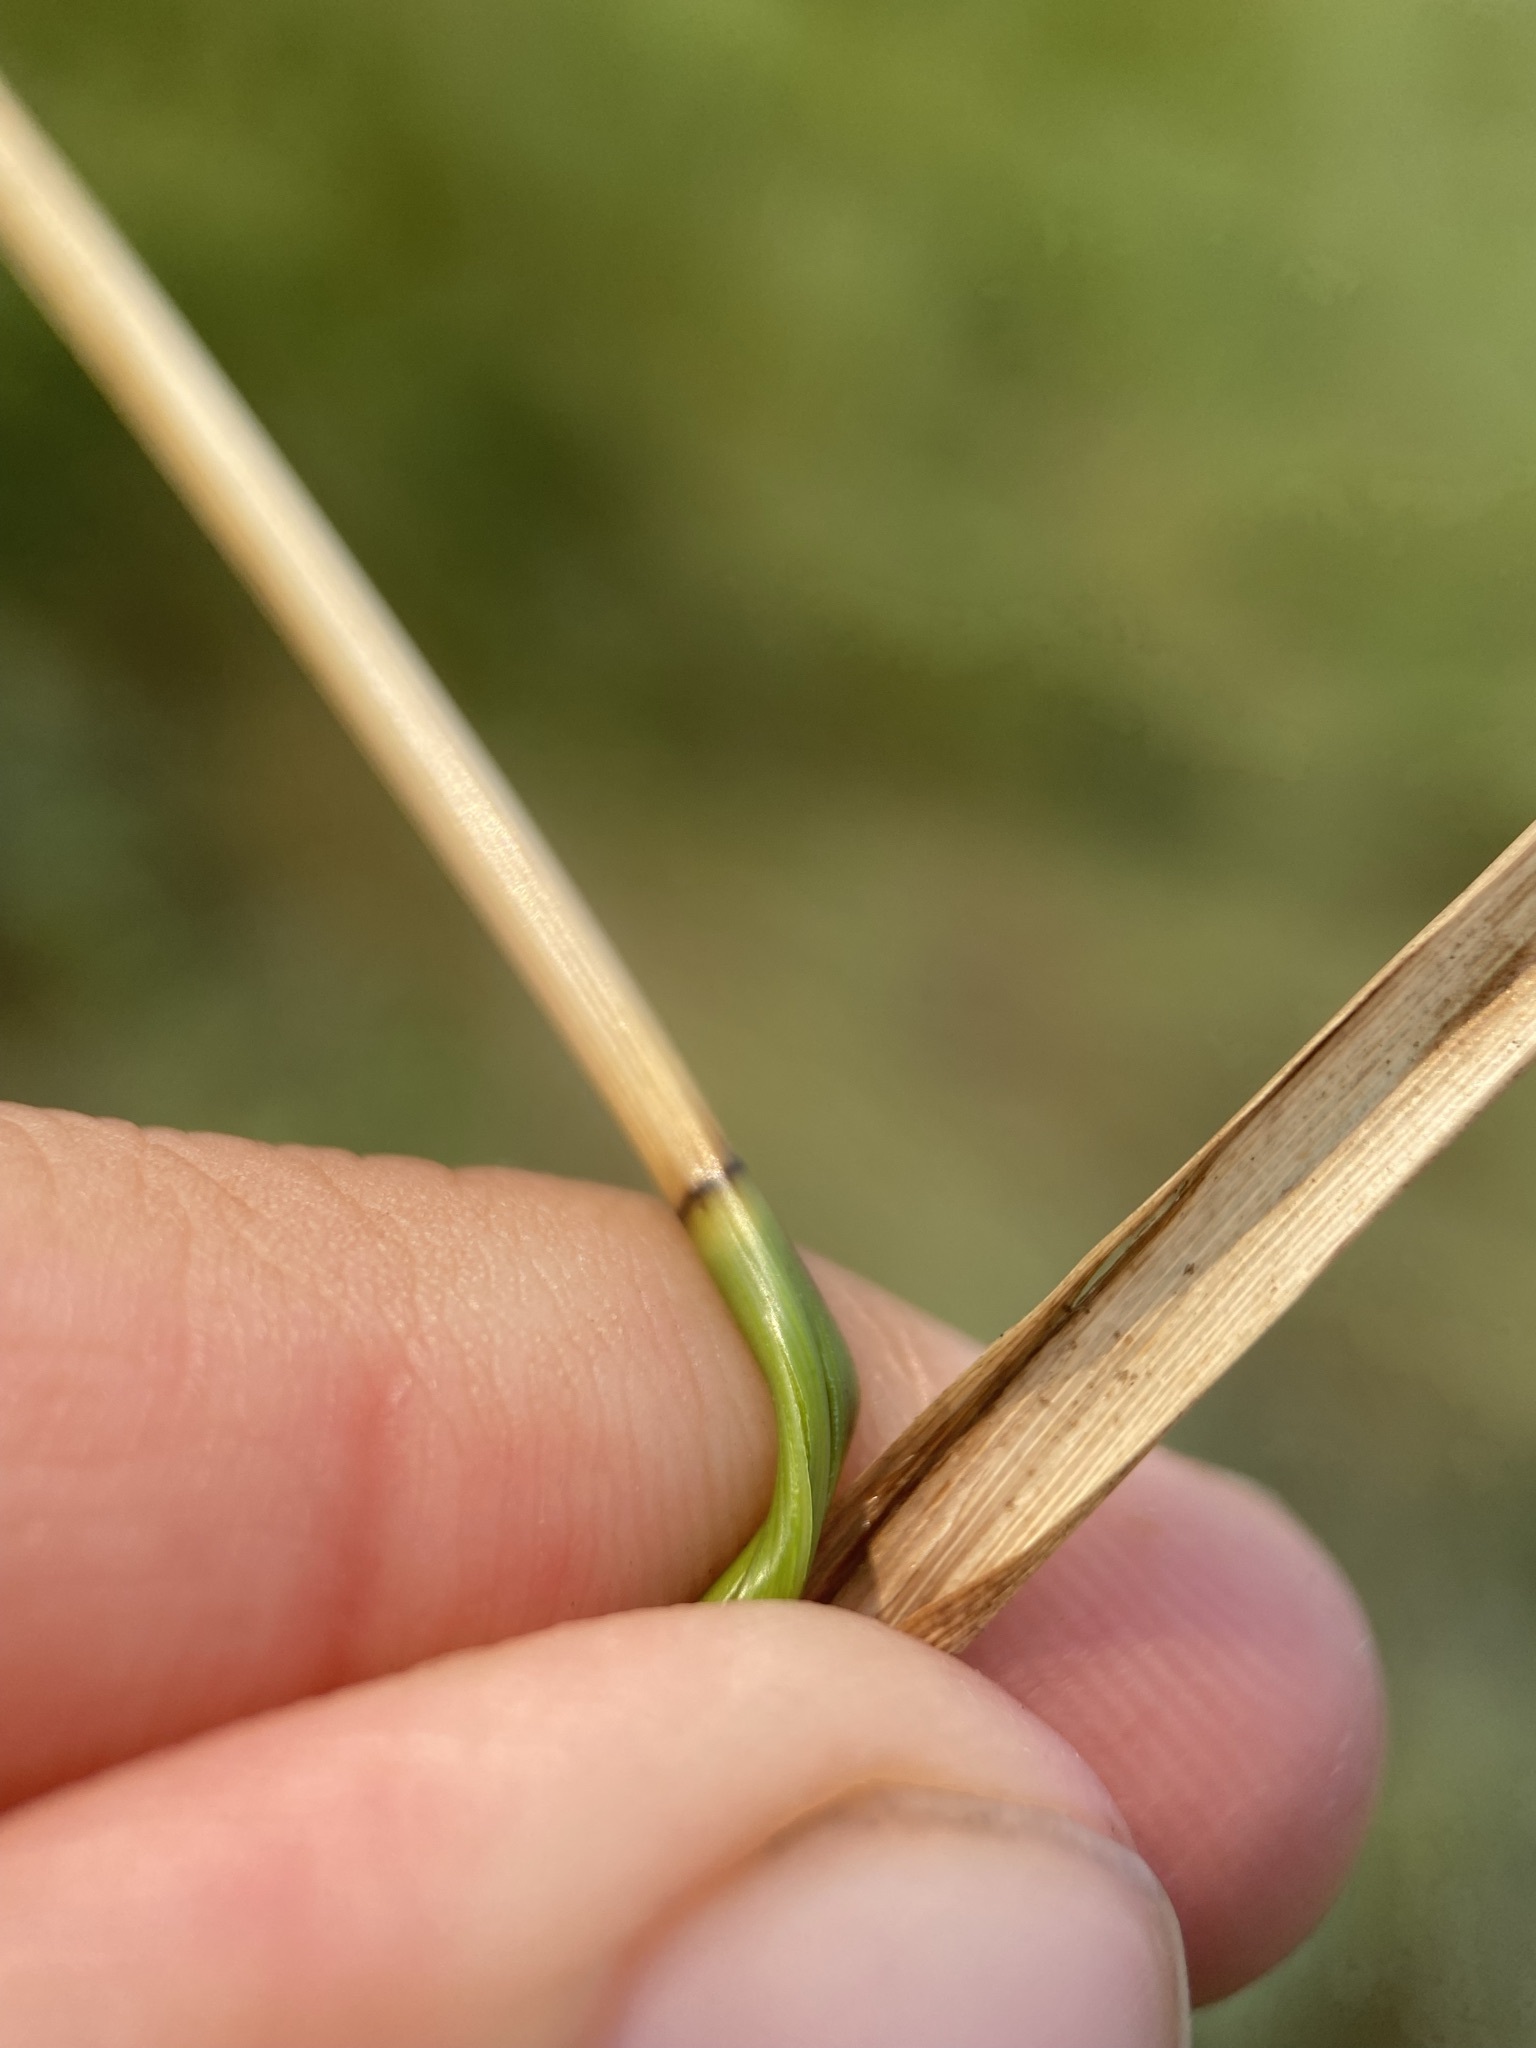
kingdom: Plantae
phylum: Tracheophyta
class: Liliopsida
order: Poales
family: Cyperaceae
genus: Carex
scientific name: Carex brevior
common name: Brevior sedge
